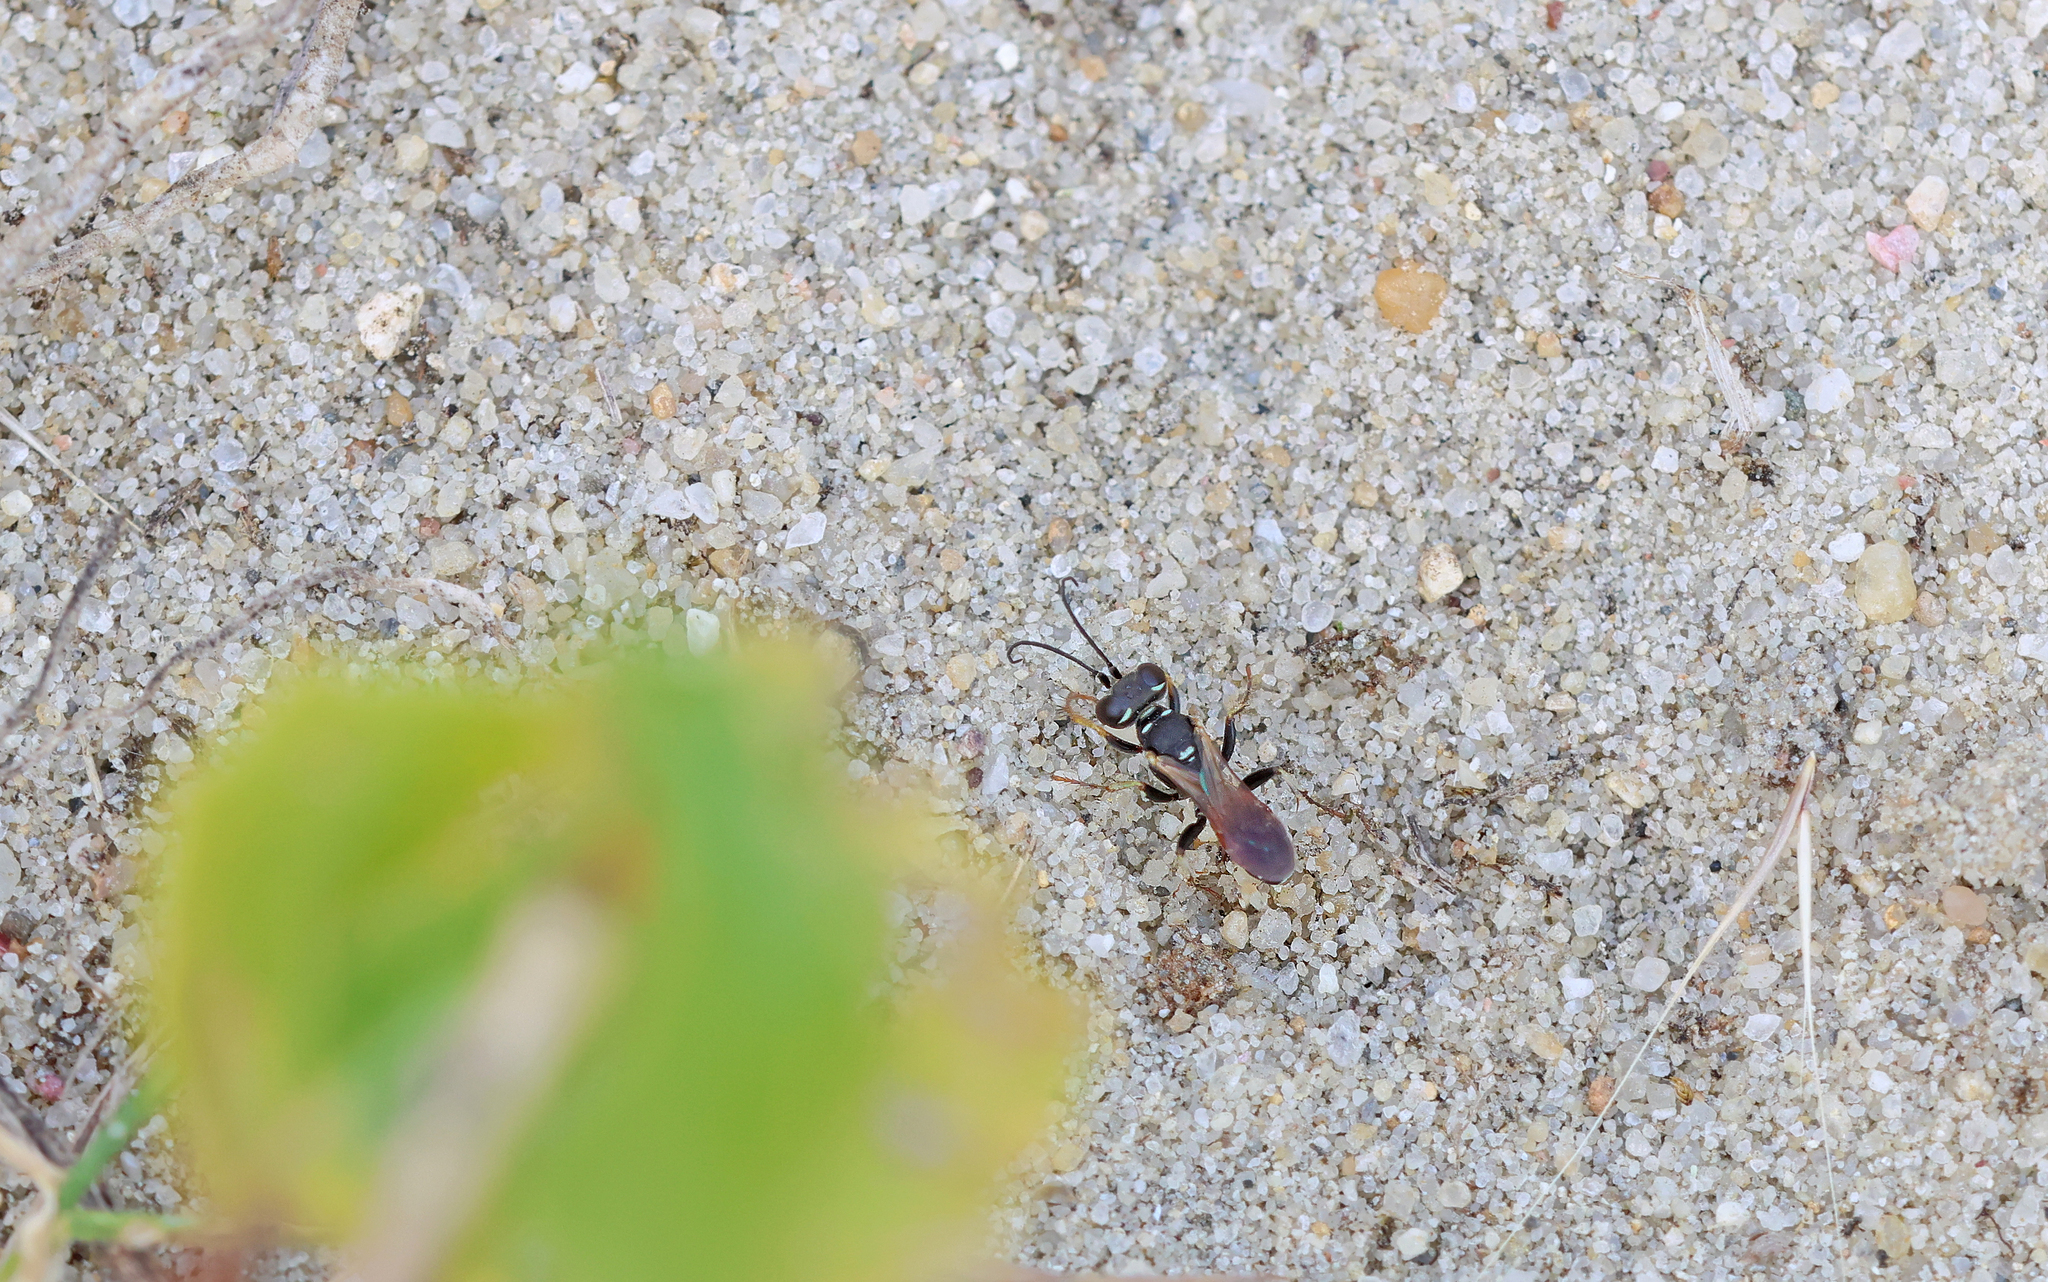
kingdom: Animalia
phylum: Arthropoda
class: Insecta
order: Hymenoptera
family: Crabronidae
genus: Dinetus
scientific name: Dinetus pictus
